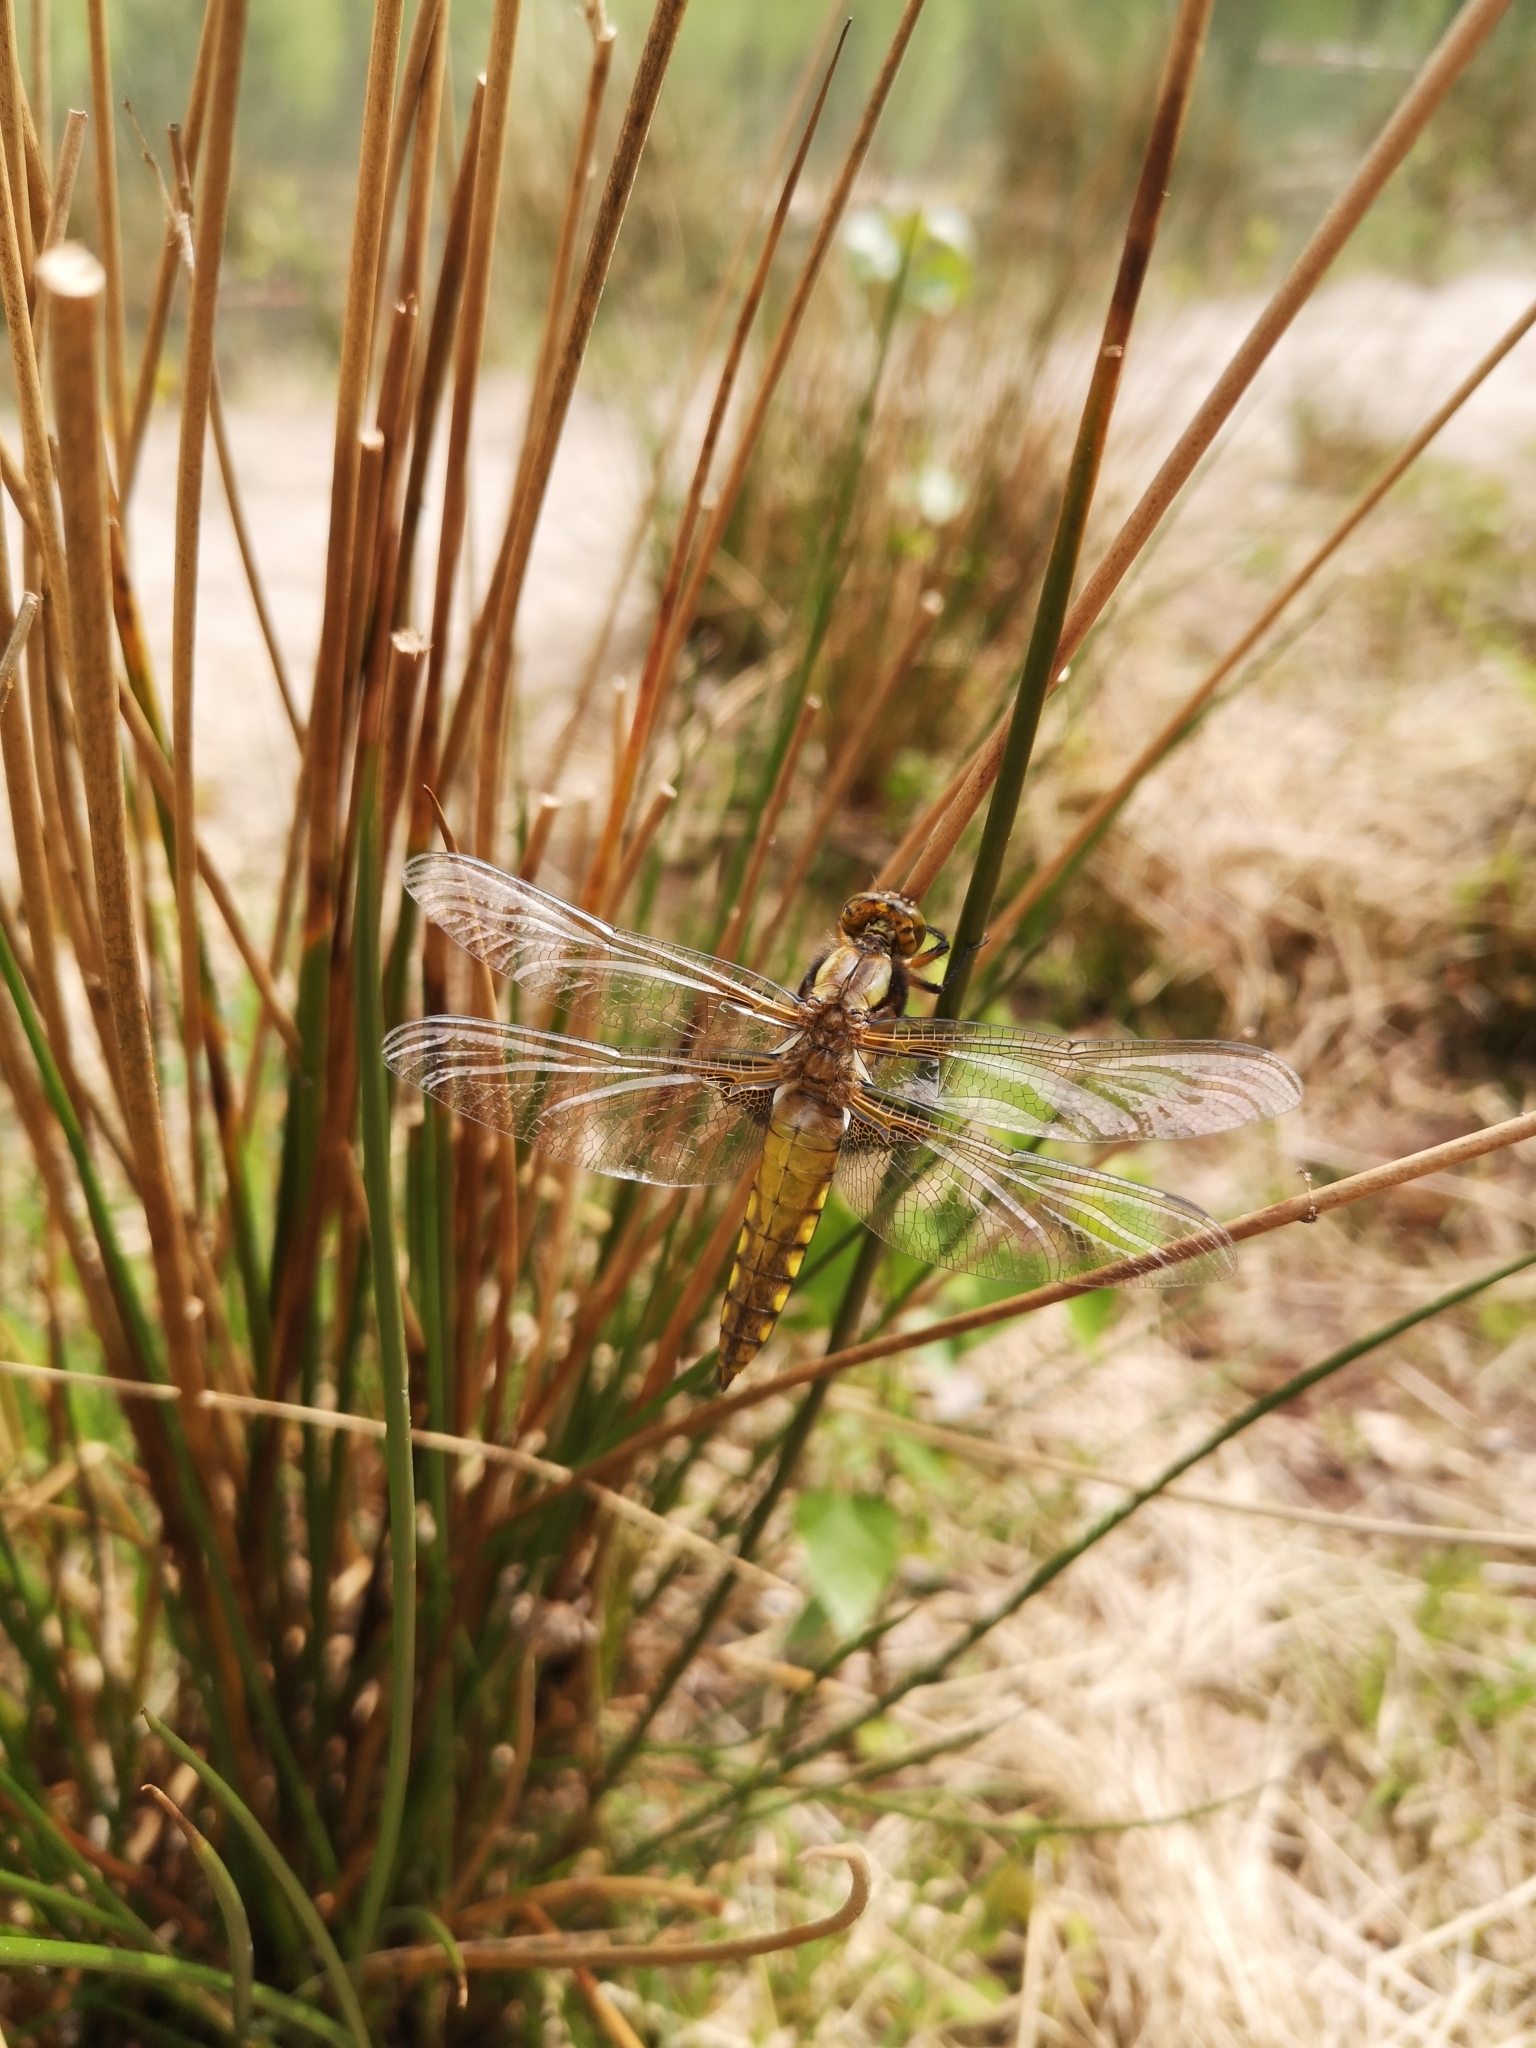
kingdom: Animalia
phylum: Arthropoda
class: Insecta
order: Odonata
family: Libellulidae
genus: Libellula
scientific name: Libellula depressa
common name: Broad-bodied chaser
